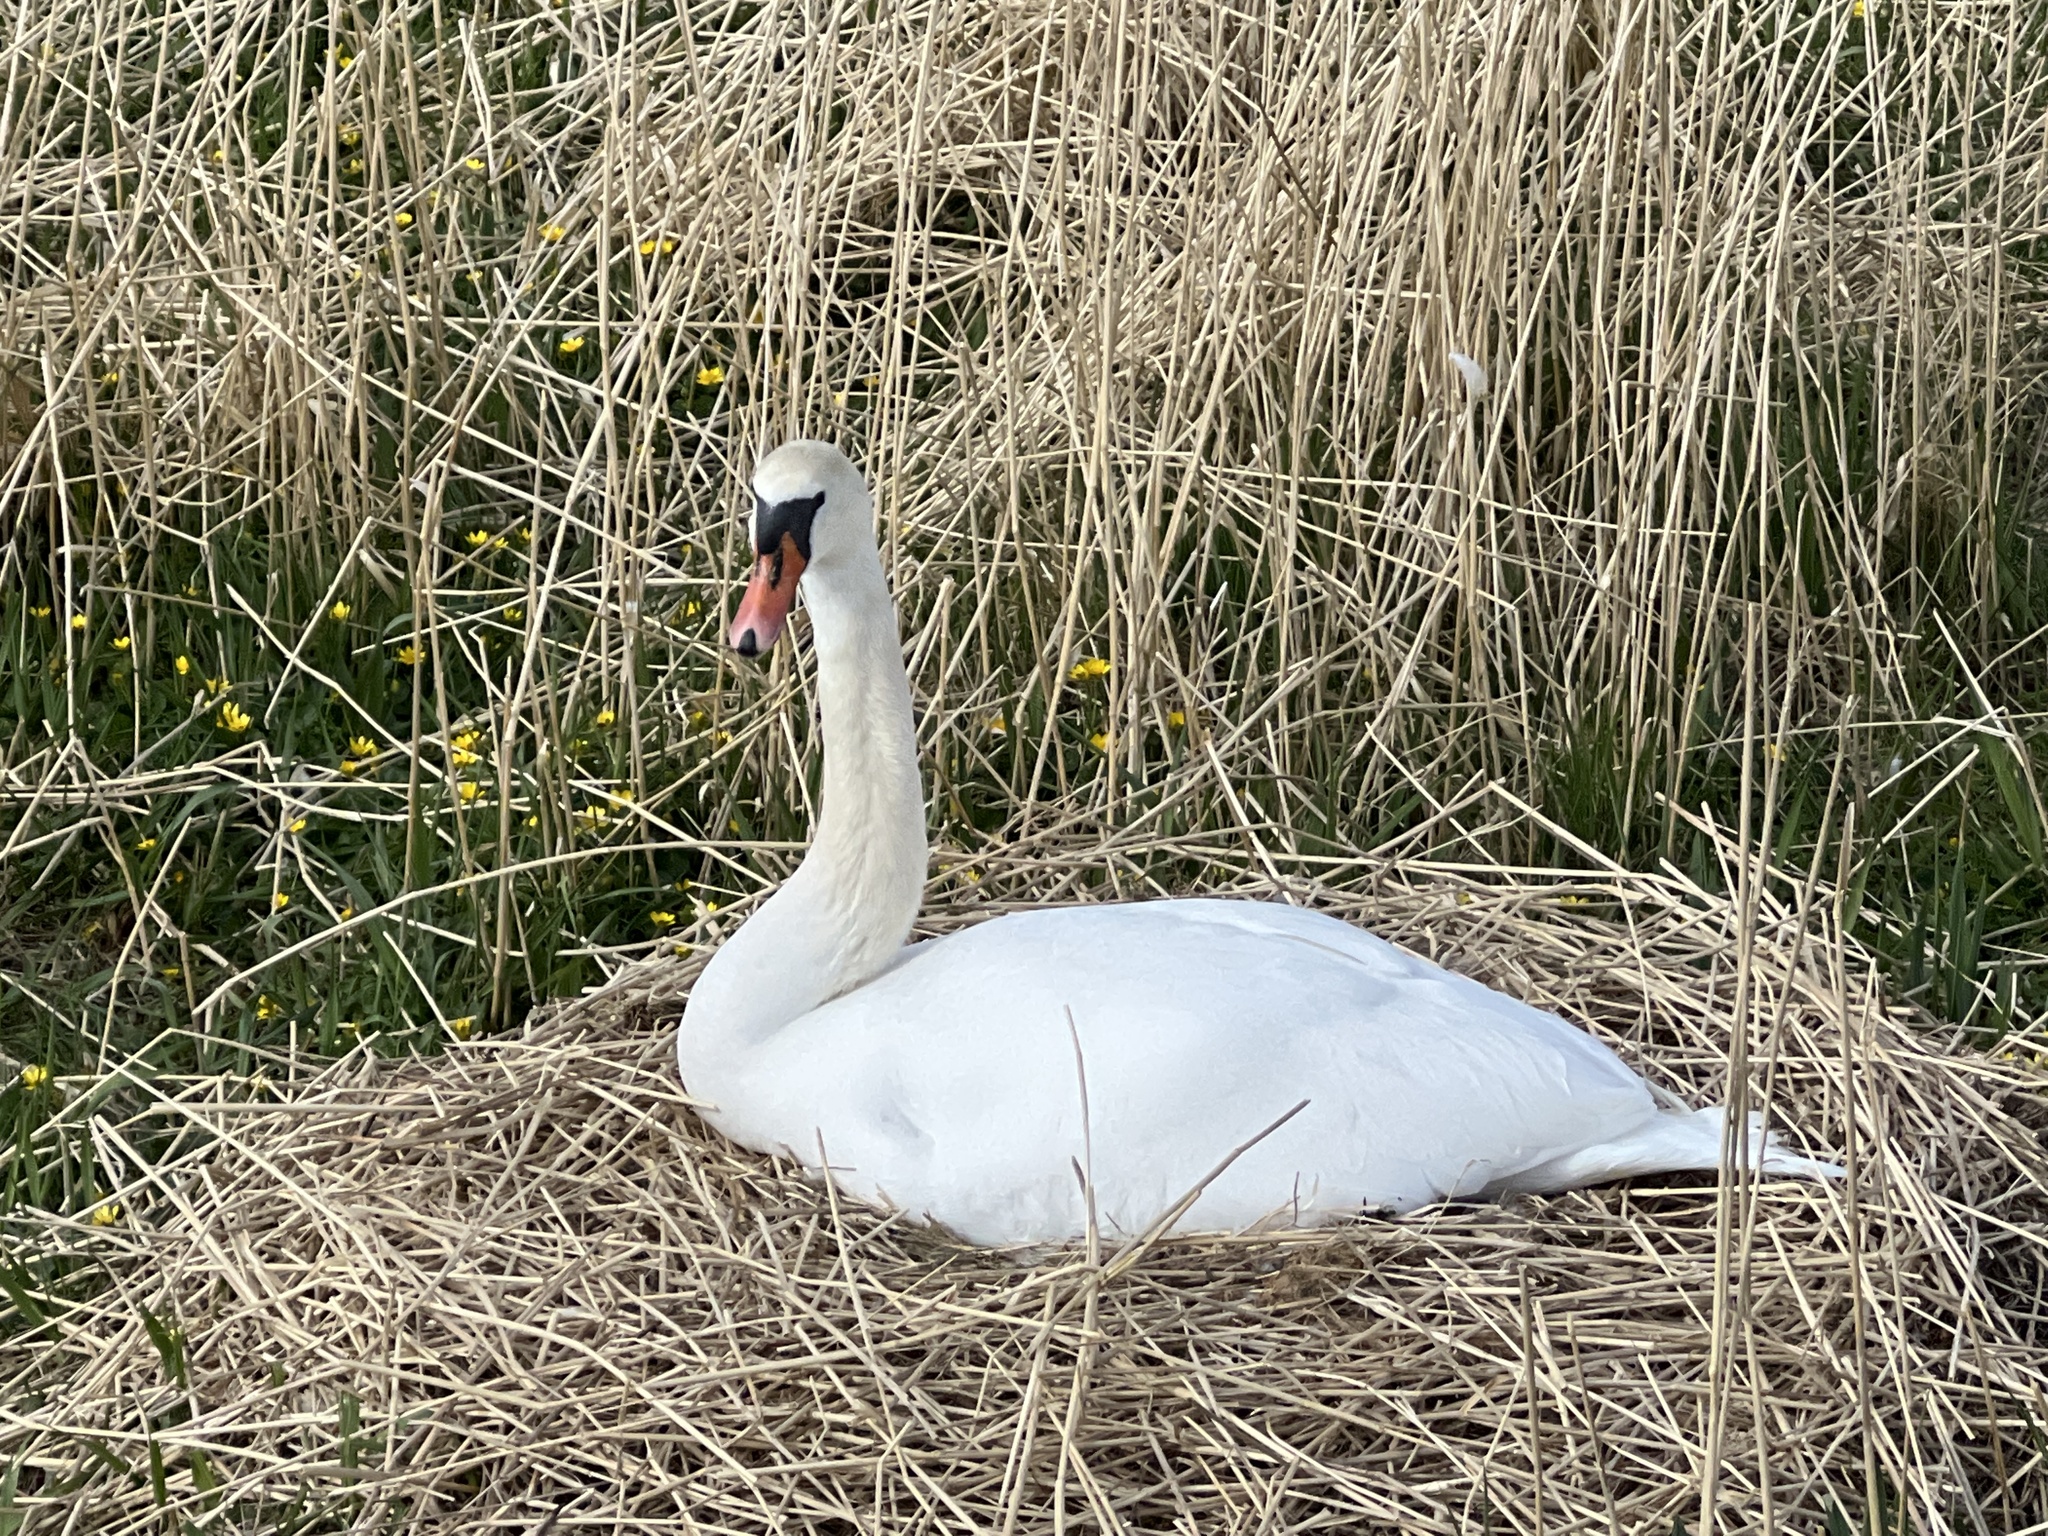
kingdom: Animalia
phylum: Chordata
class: Aves
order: Anseriformes
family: Anatidae
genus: Cygnus
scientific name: Cygnus olor
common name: Mute swan
